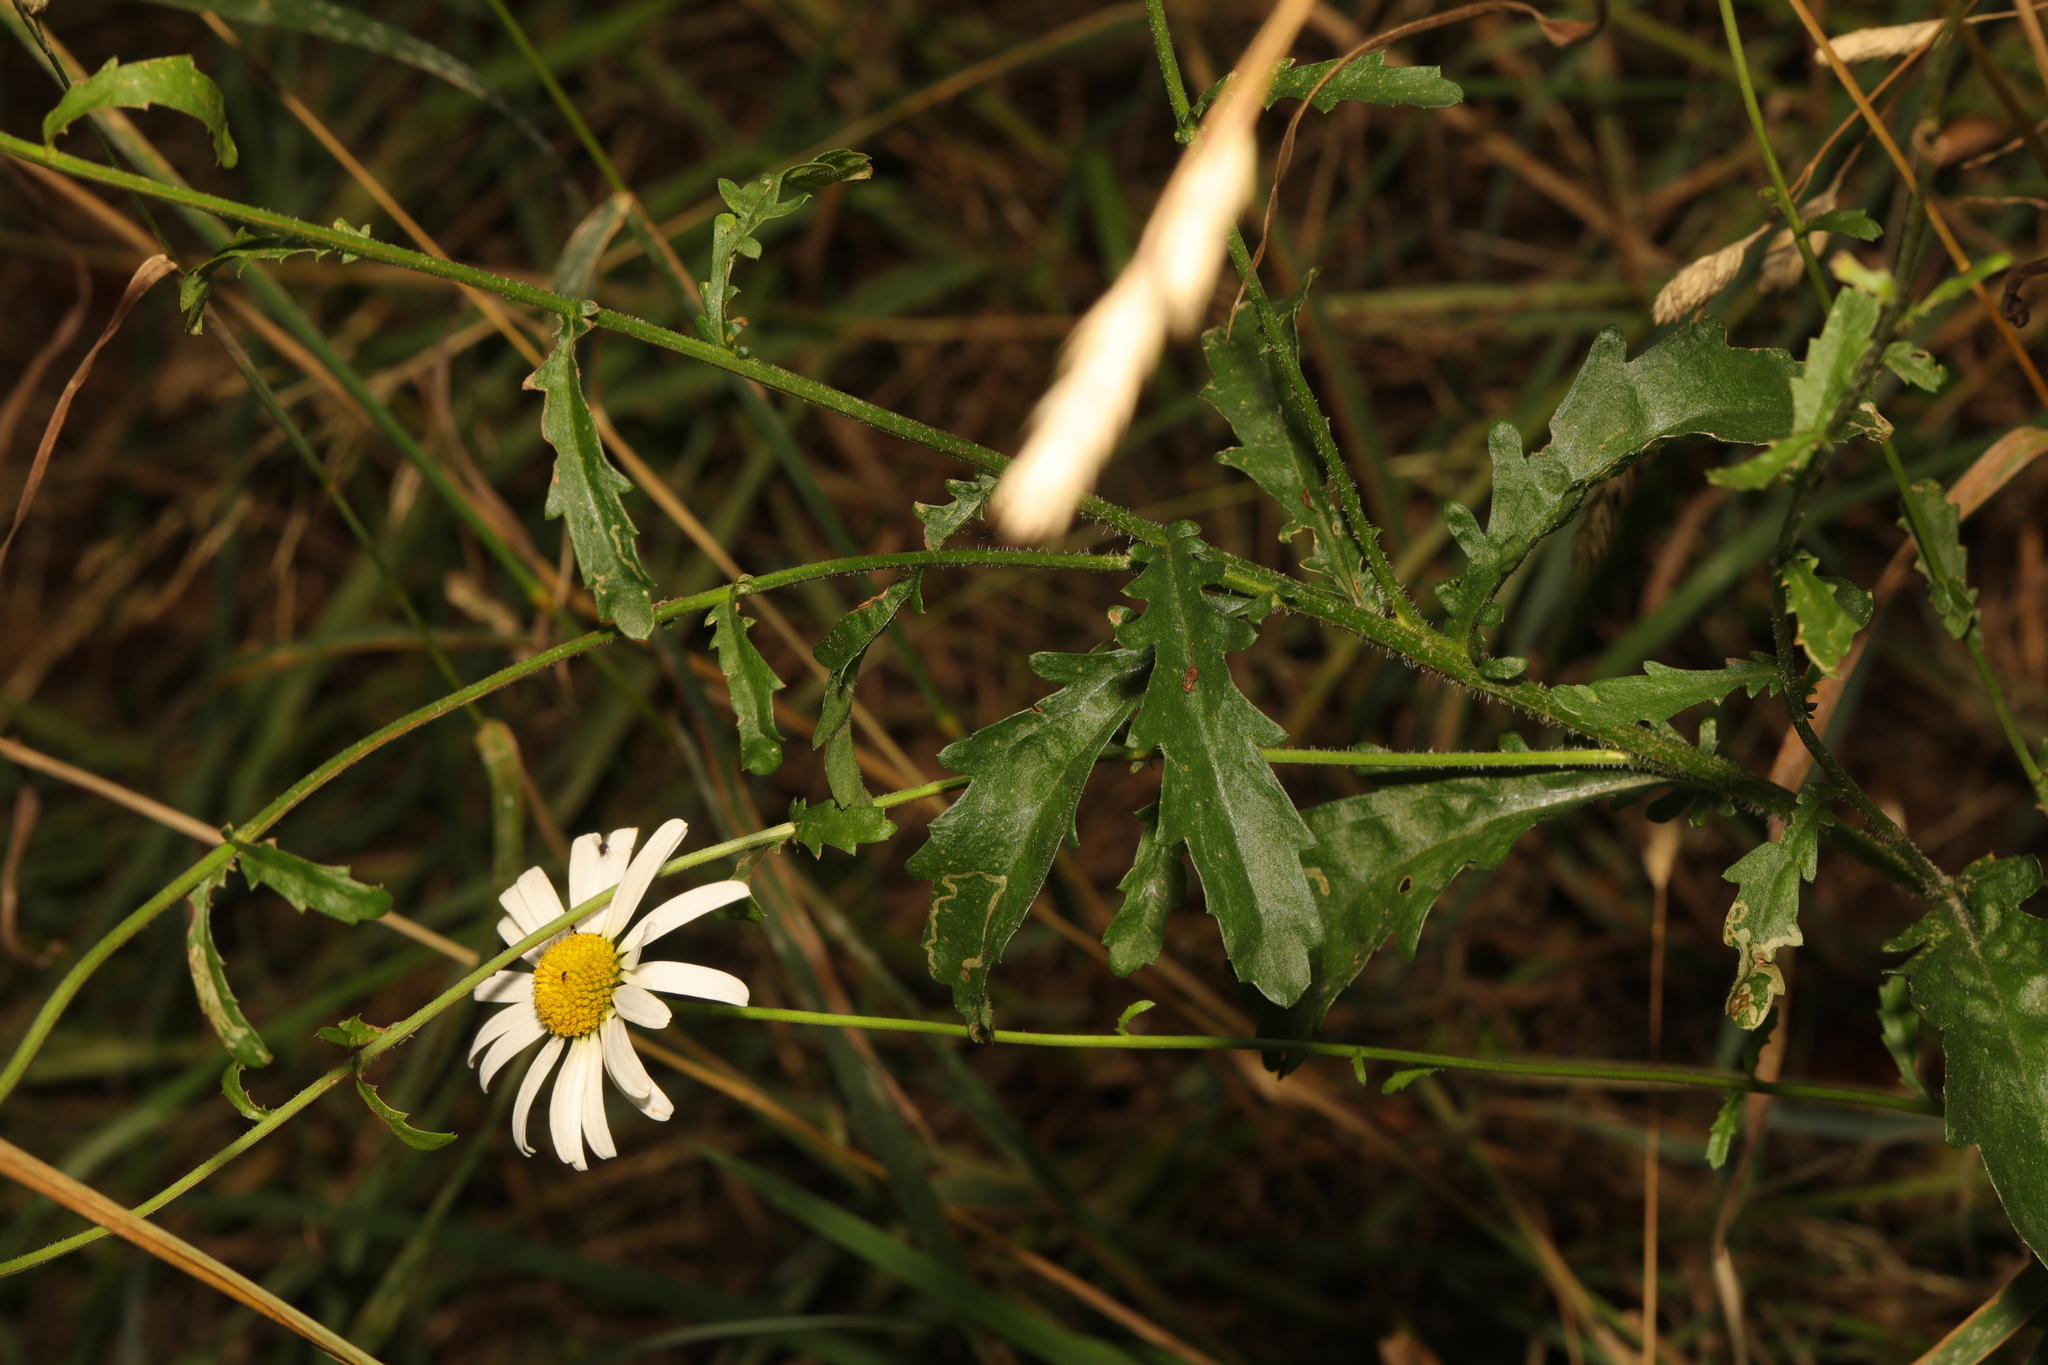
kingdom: Plantae
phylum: Tracheophyta
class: Magnoliopsida
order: Asterales
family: Asteraceae
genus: Leucanthemum
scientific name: Leucanthemum vulgare
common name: Oxeye daisy
